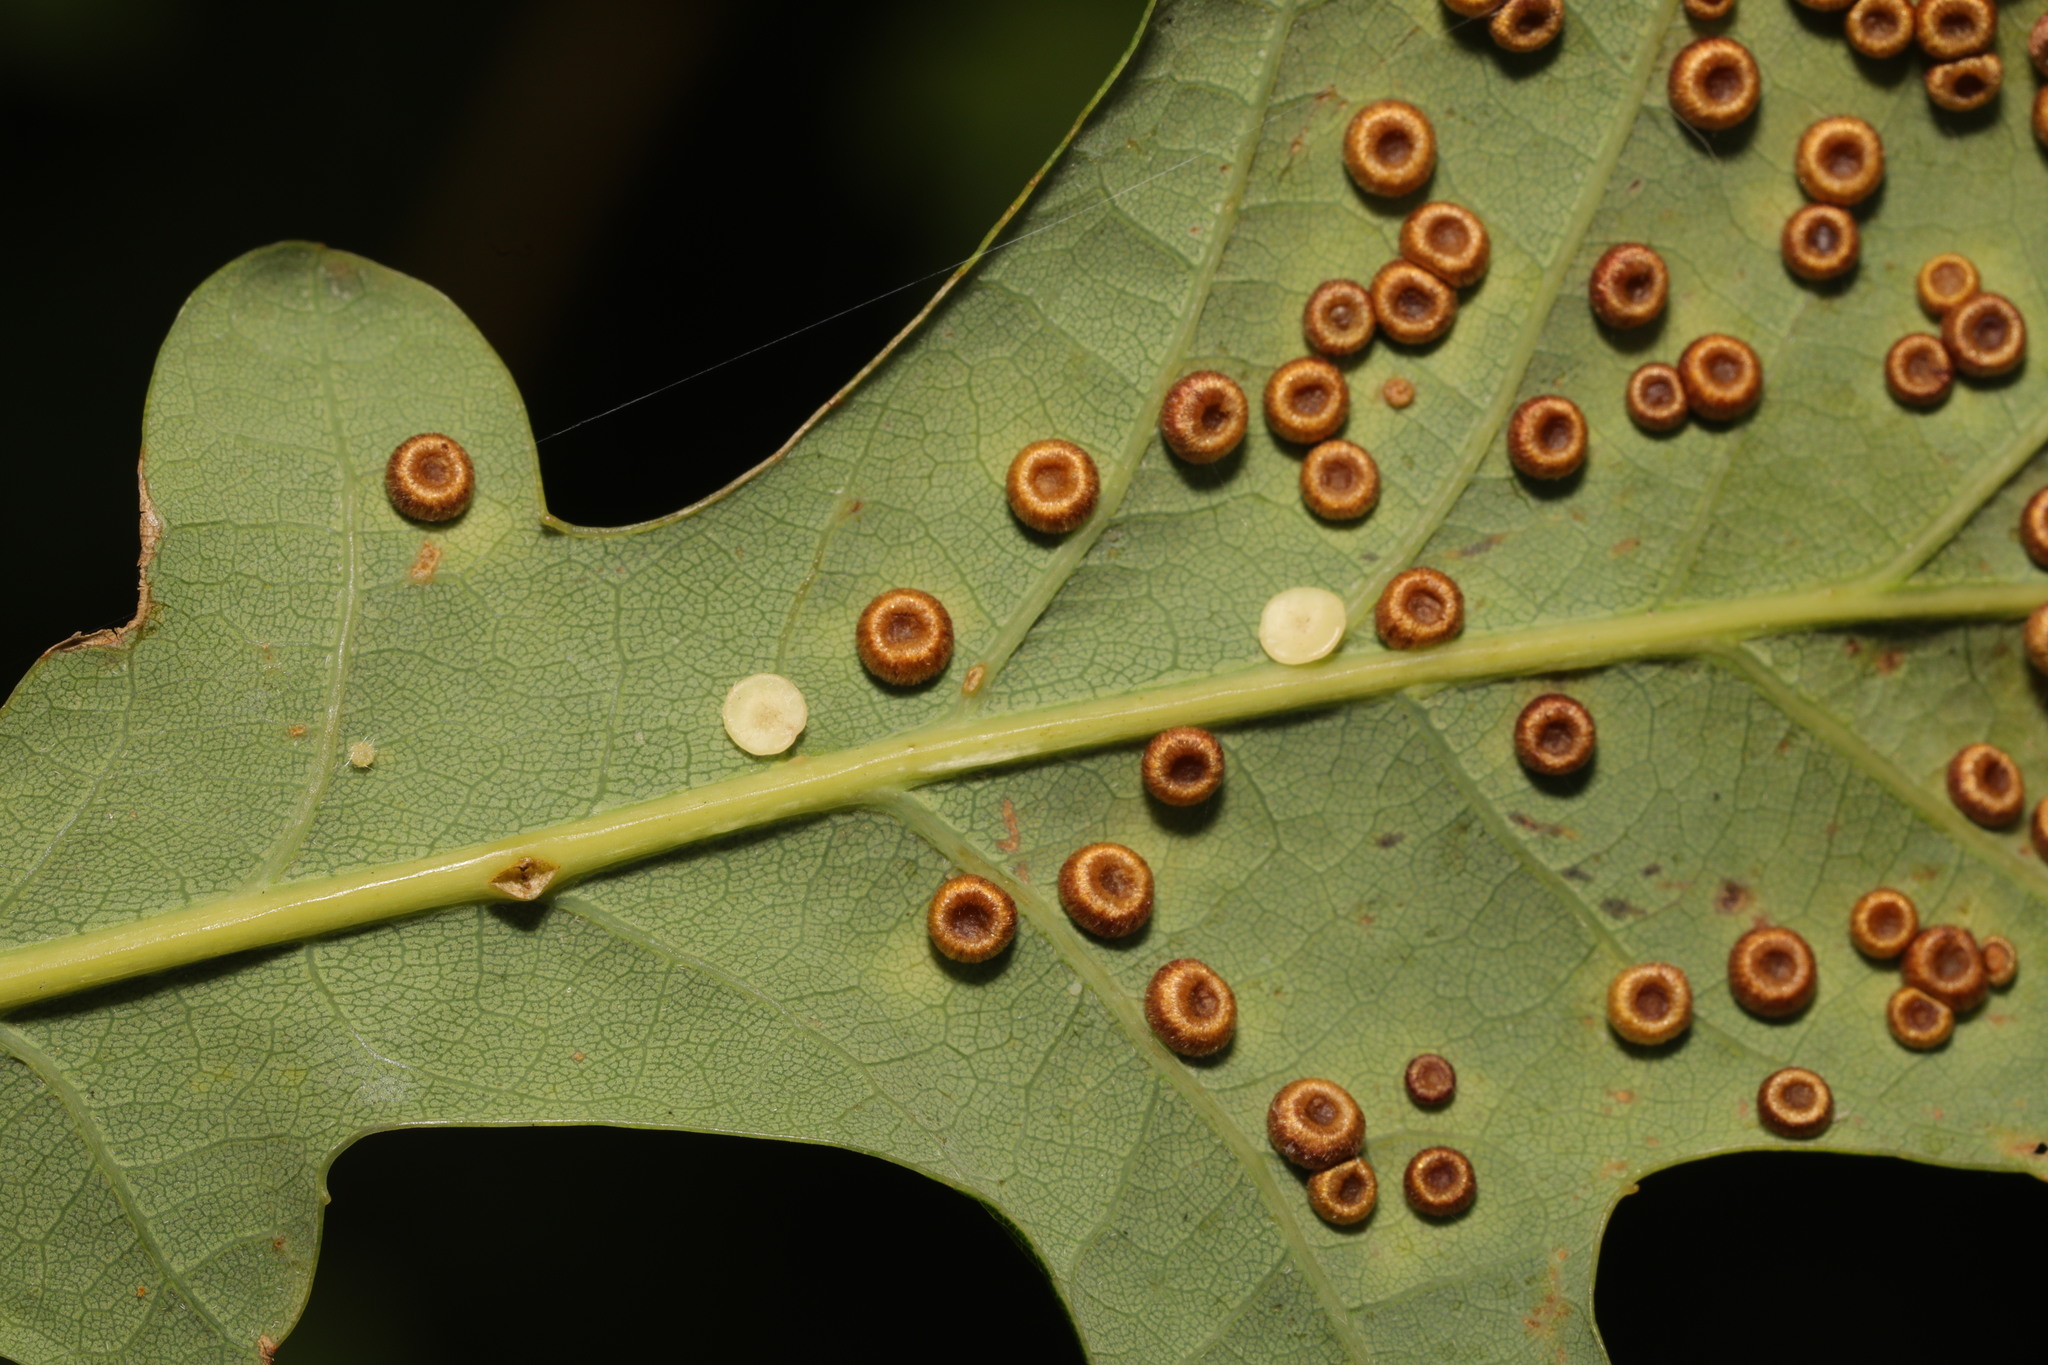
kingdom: Animalia
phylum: Arthropoda
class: Insecta
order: Hymenoptera
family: Cynipidae
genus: Neuroterus
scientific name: Neuroterus albipes
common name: Smooth spangle gall
